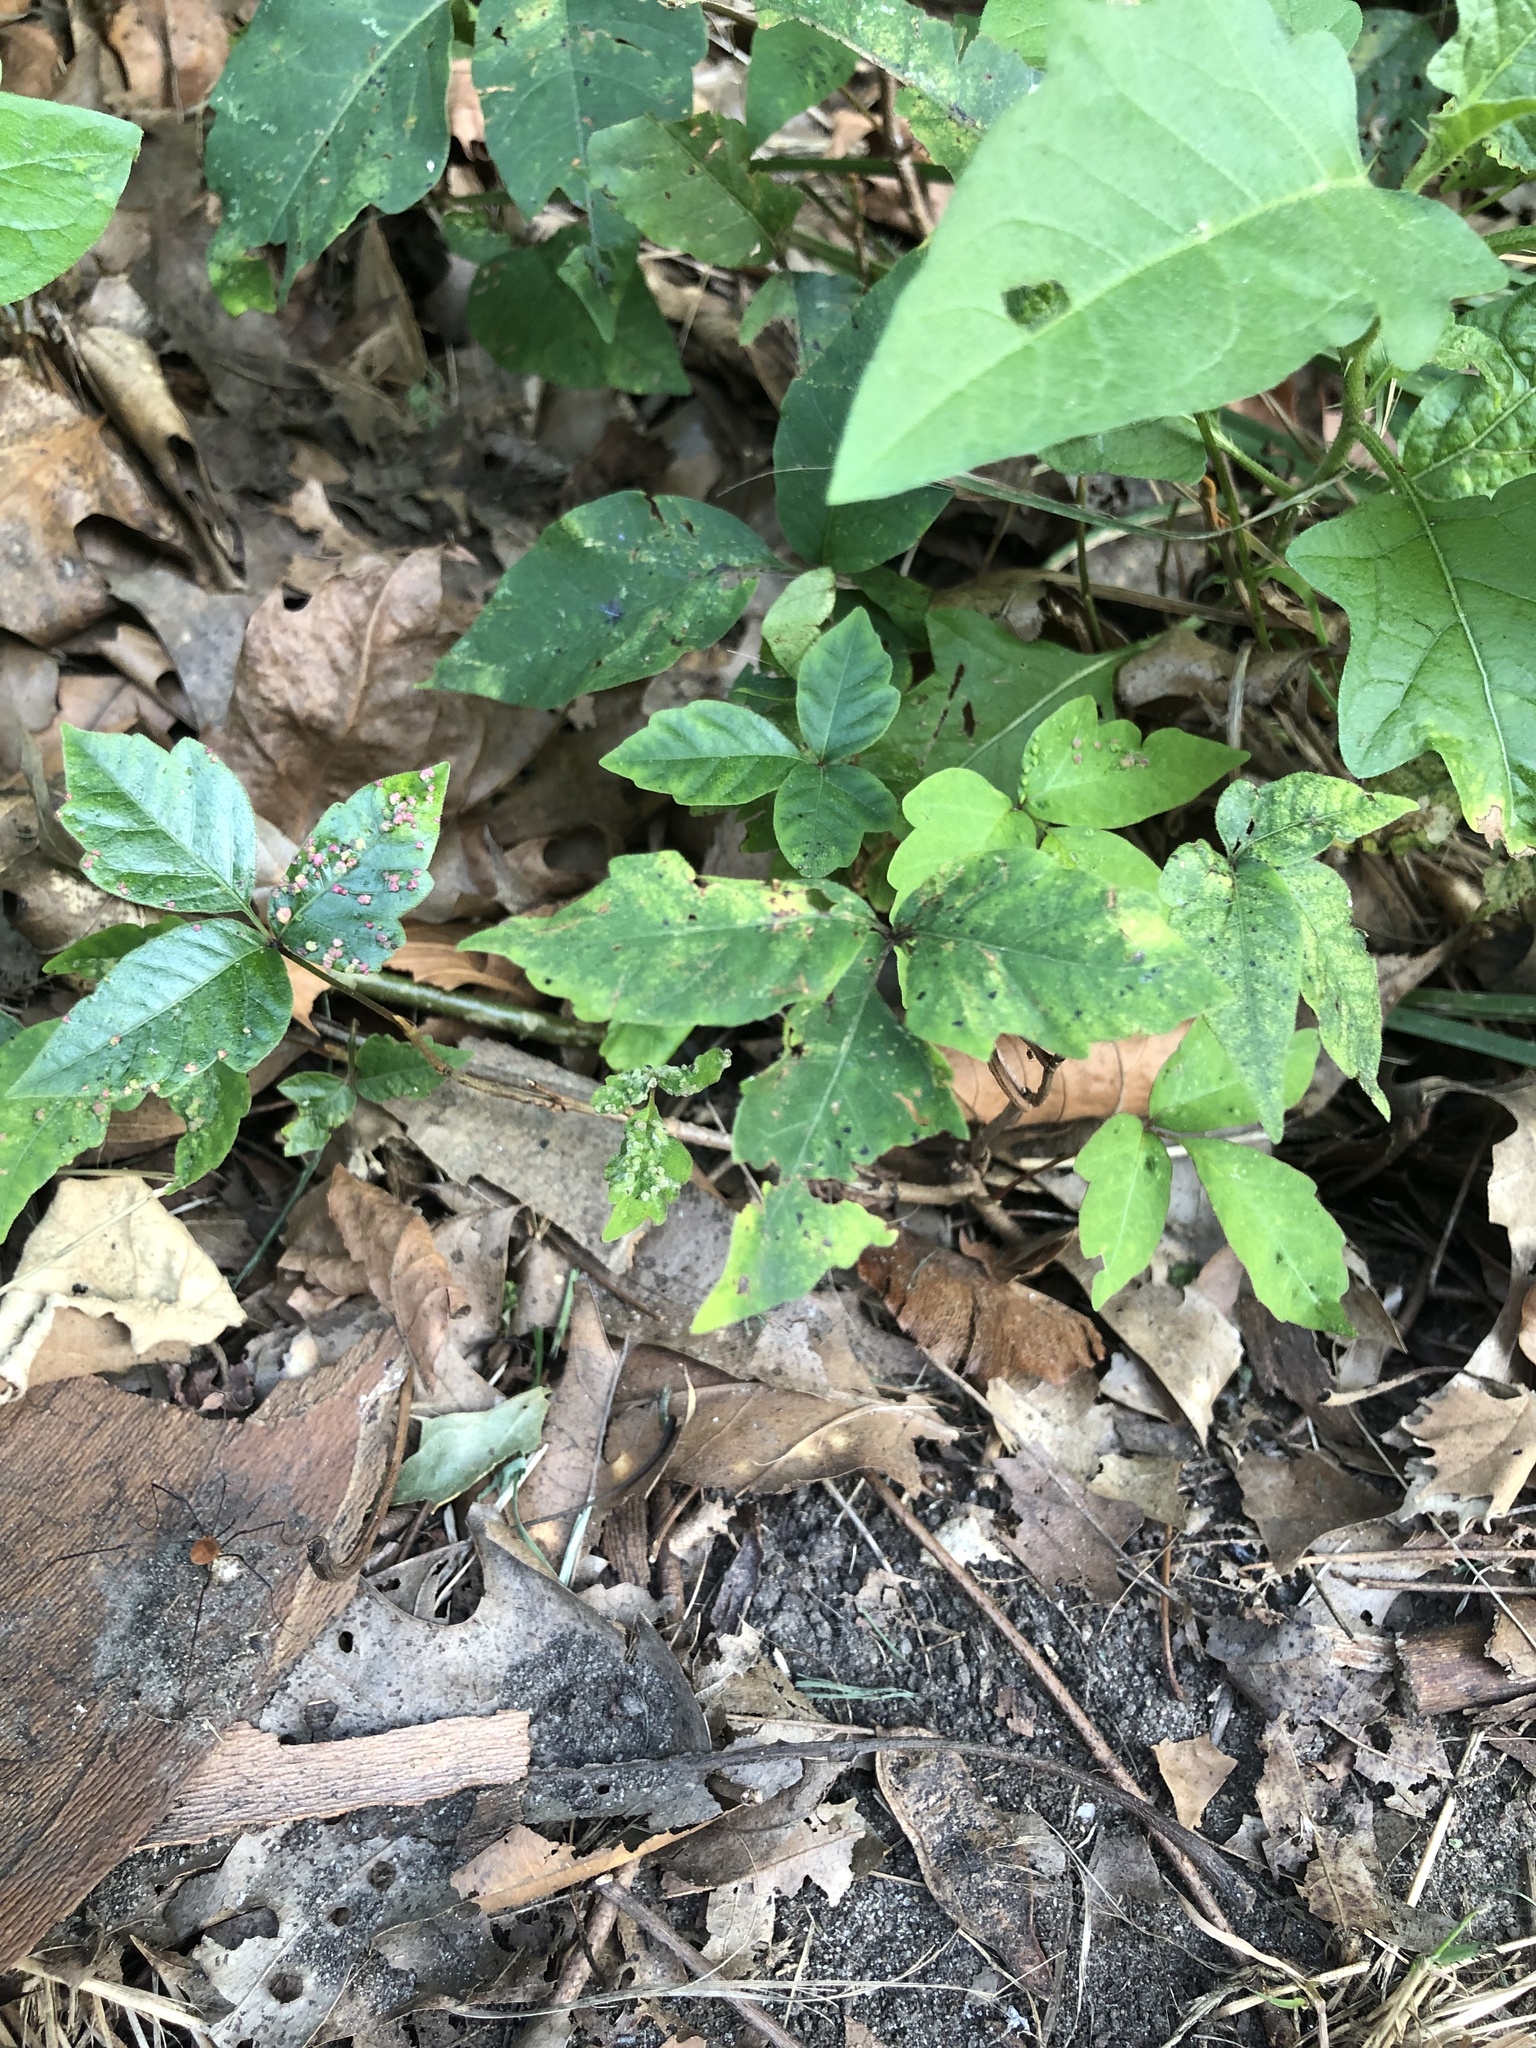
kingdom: Plantae
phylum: Tracheophyta
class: Magnoliopsida
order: Sapindales
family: Anacardiaceae
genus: Toxicodendron
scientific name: Toxicodendron radicans
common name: Poison ivy
